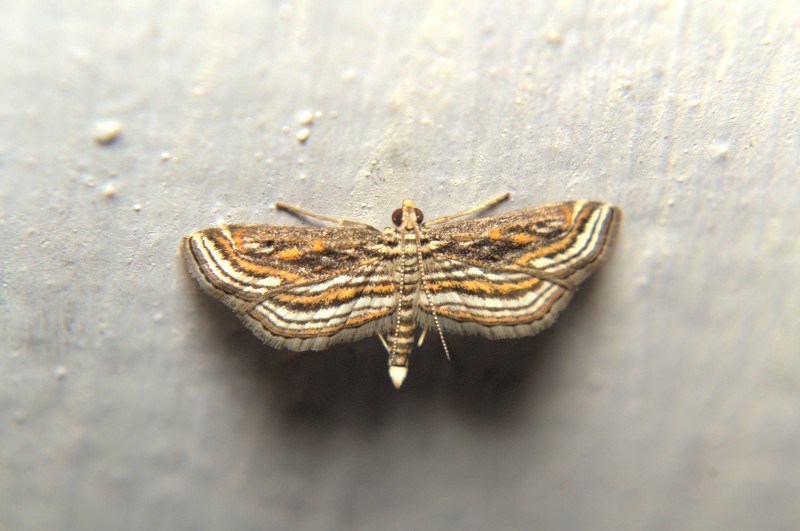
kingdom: Animalia
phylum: Arthropoda
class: Insecta
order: Lepidoptera
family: Crambidae
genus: Parapoynx
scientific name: Parapoynx fluctuosalis
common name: Moth
